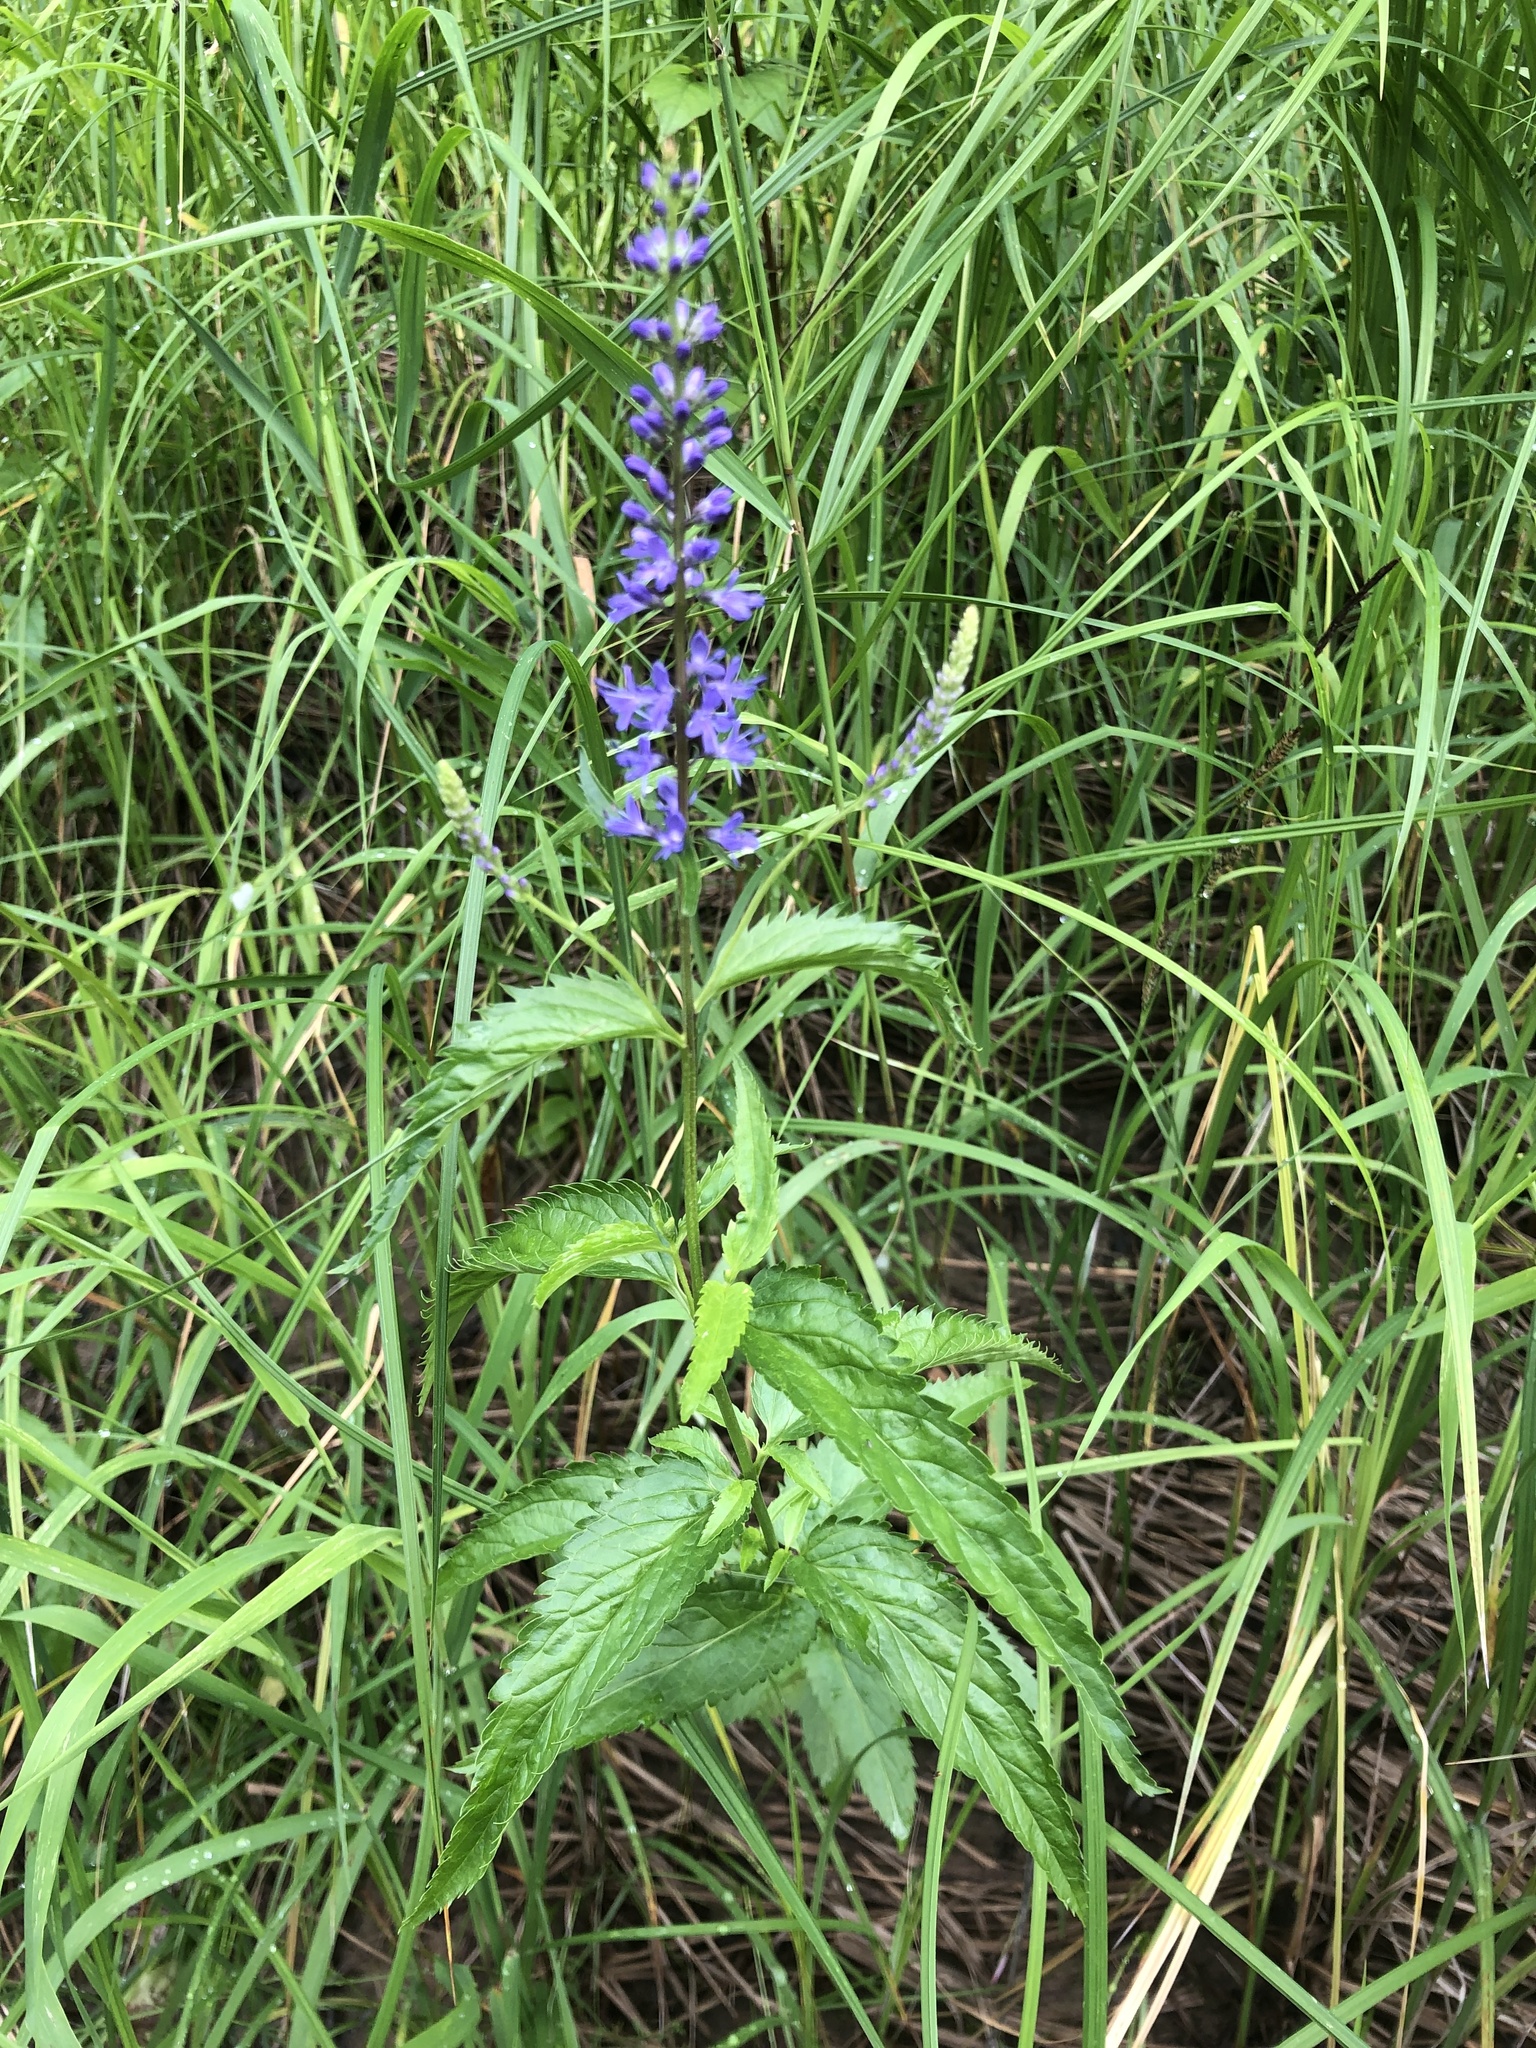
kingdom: Plantae
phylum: Tracheophyta
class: Magnoliopsida
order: Lamiales
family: Plantaginaceae
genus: Veronica
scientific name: Veronica longifolia
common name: Garden speedwell
